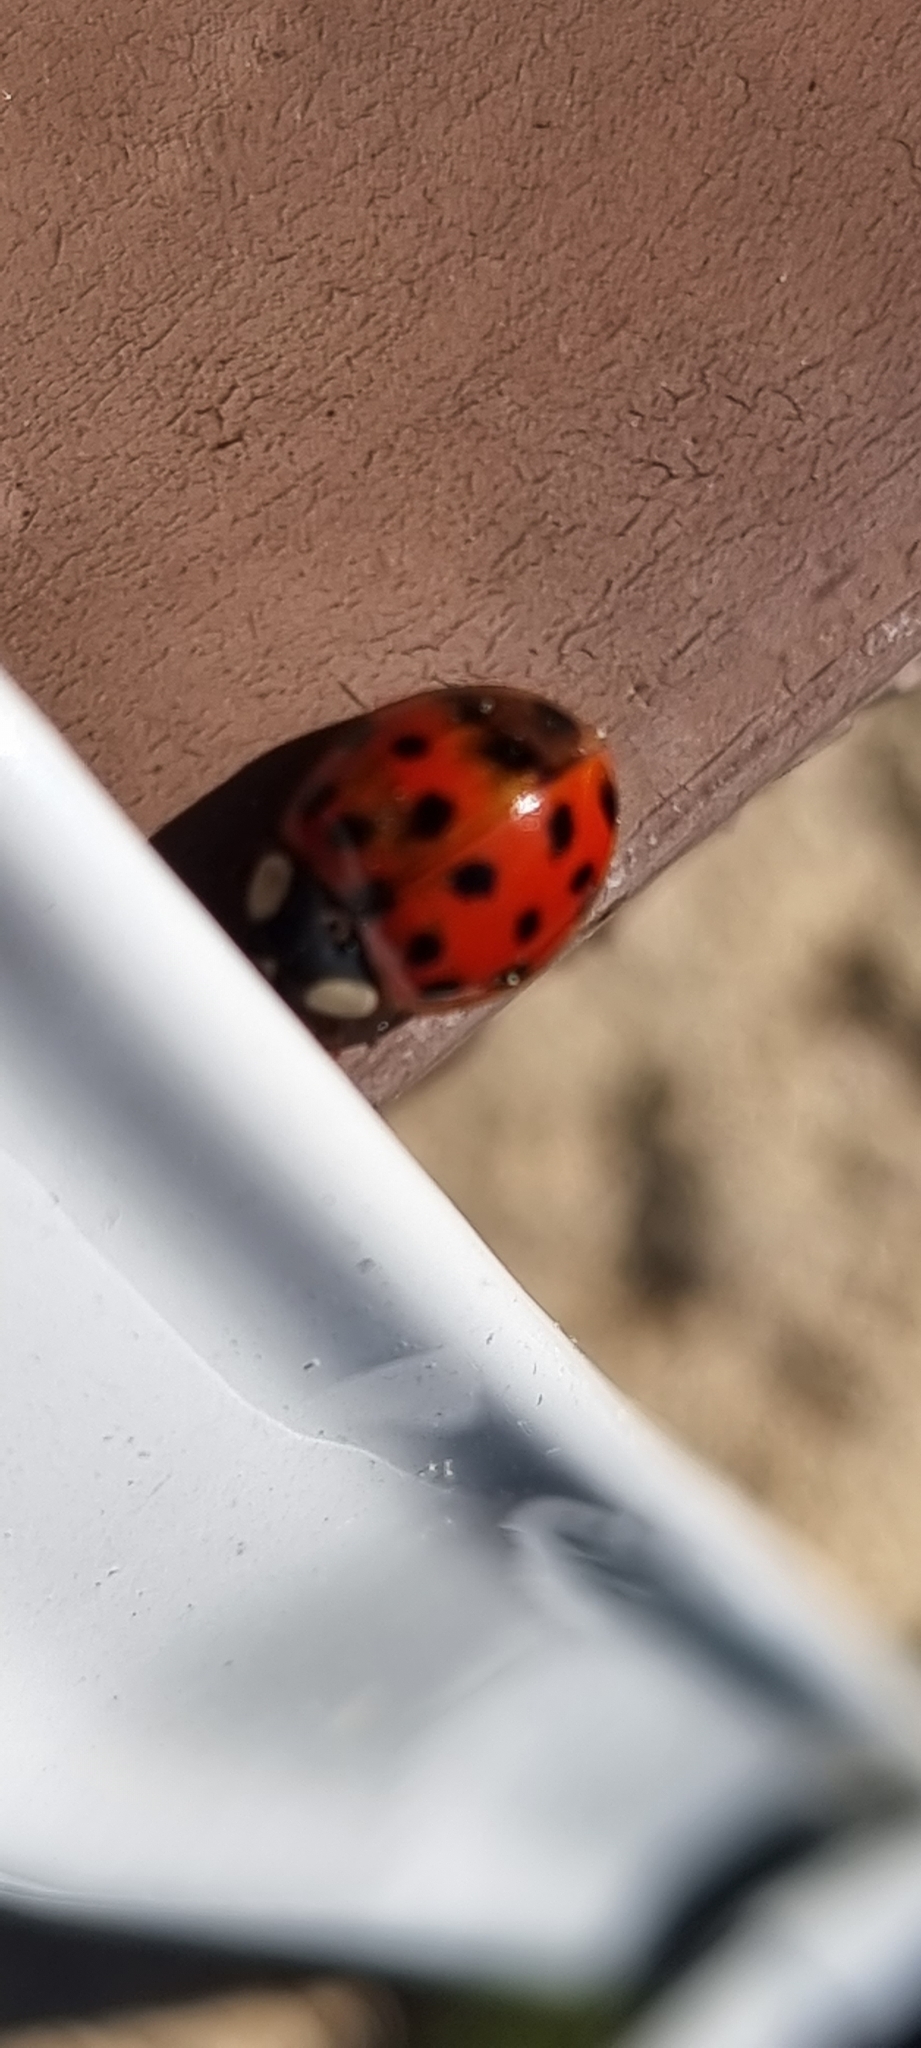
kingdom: Animalia
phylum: Arthropoda
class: Insecta
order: Coleoptera
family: Coccinellidae
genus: Harmonia
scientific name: Harmonia axyridis
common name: Harlequin ladybird
